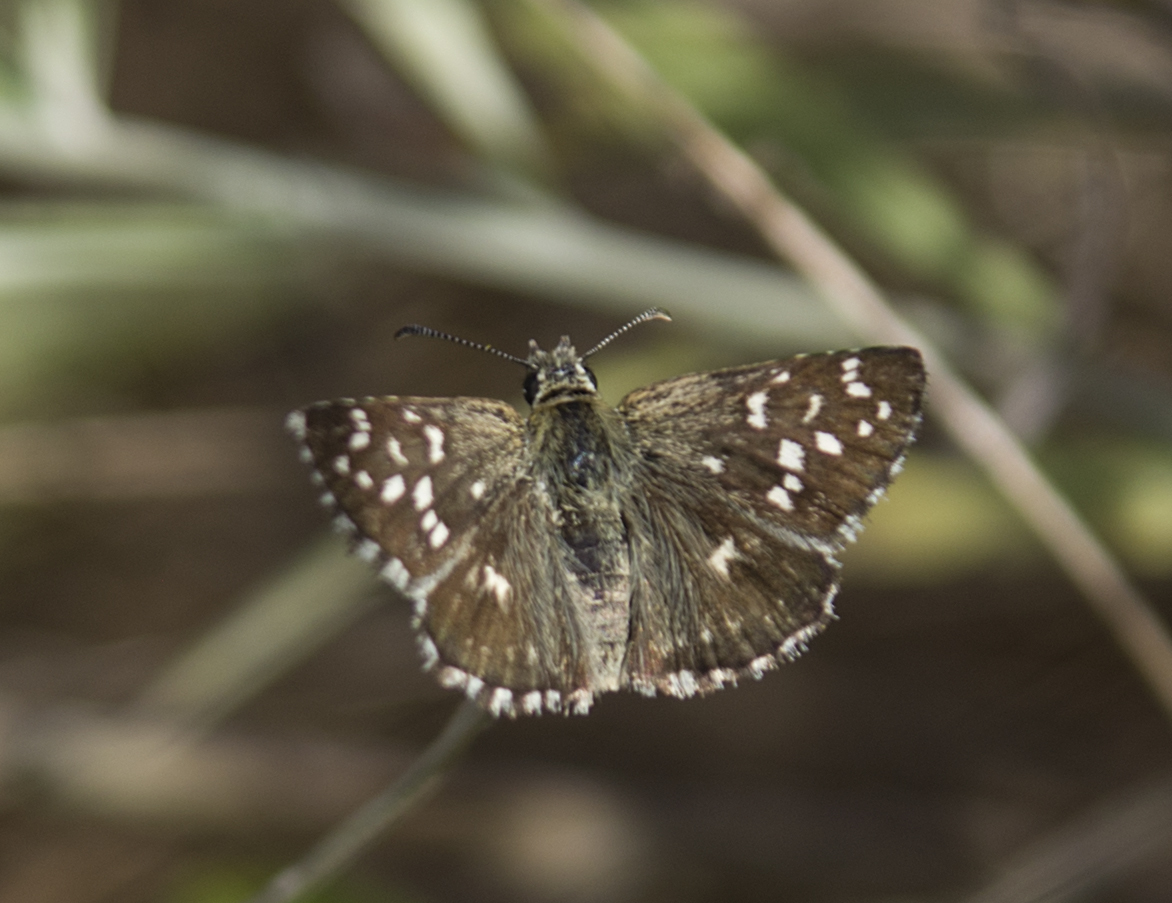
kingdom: Animalia
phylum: Arthropoda
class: Insecta
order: Lepidoptera
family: Hesperiidae
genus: Pyrgus
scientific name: Pyrgus malvae
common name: Grizzled skipper
